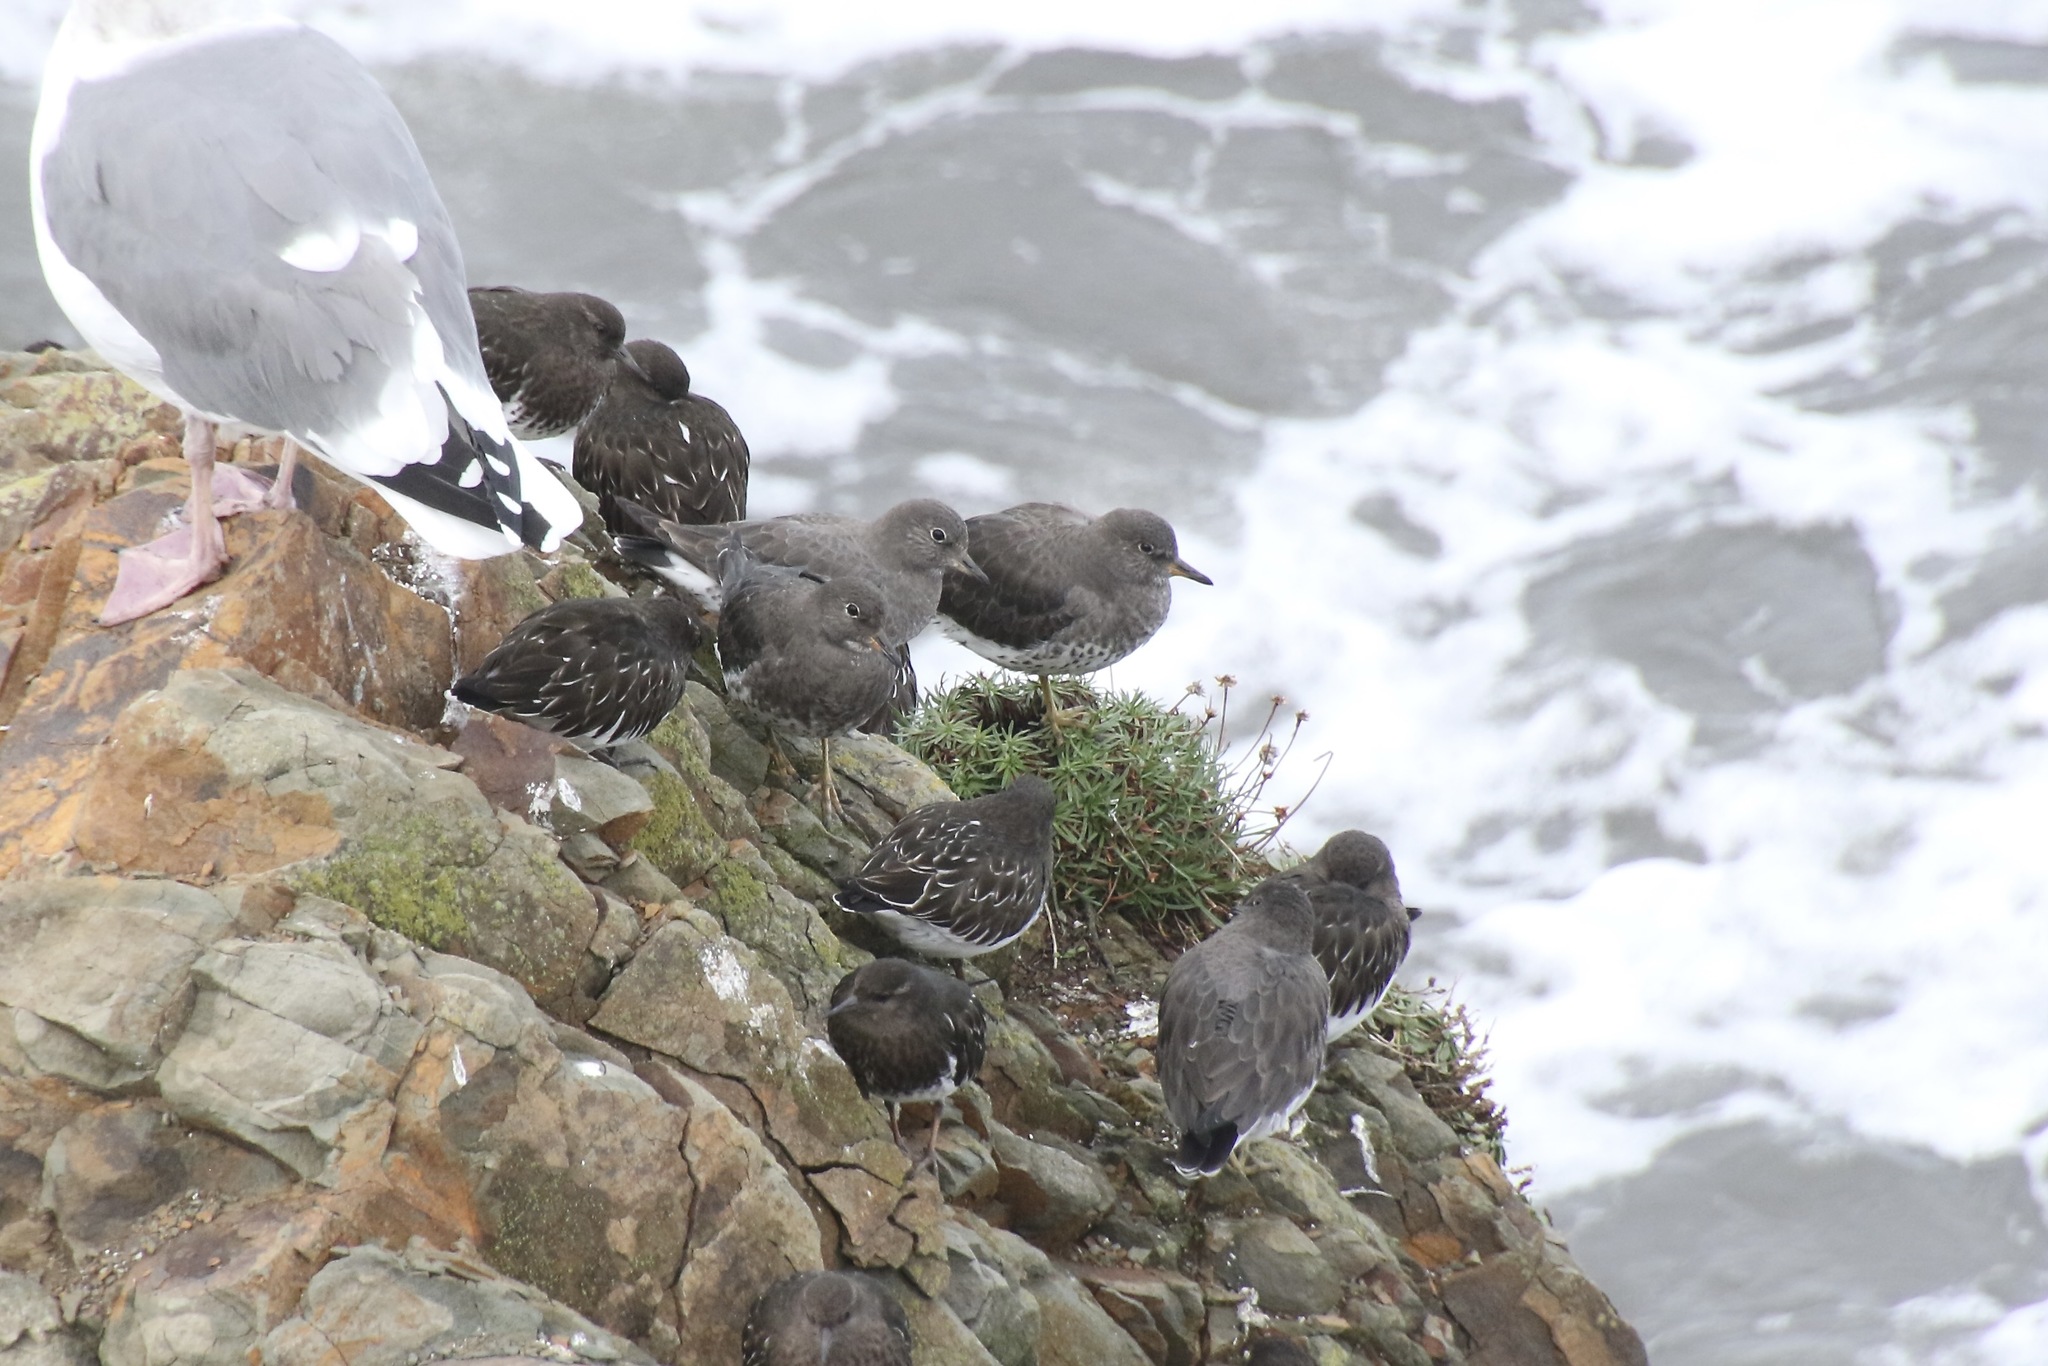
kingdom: Animalia
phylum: Chordata
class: Aves
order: Charadriiformes
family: Scolopacidae
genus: Calidris
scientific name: Calidris virgata
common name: Surfbird
